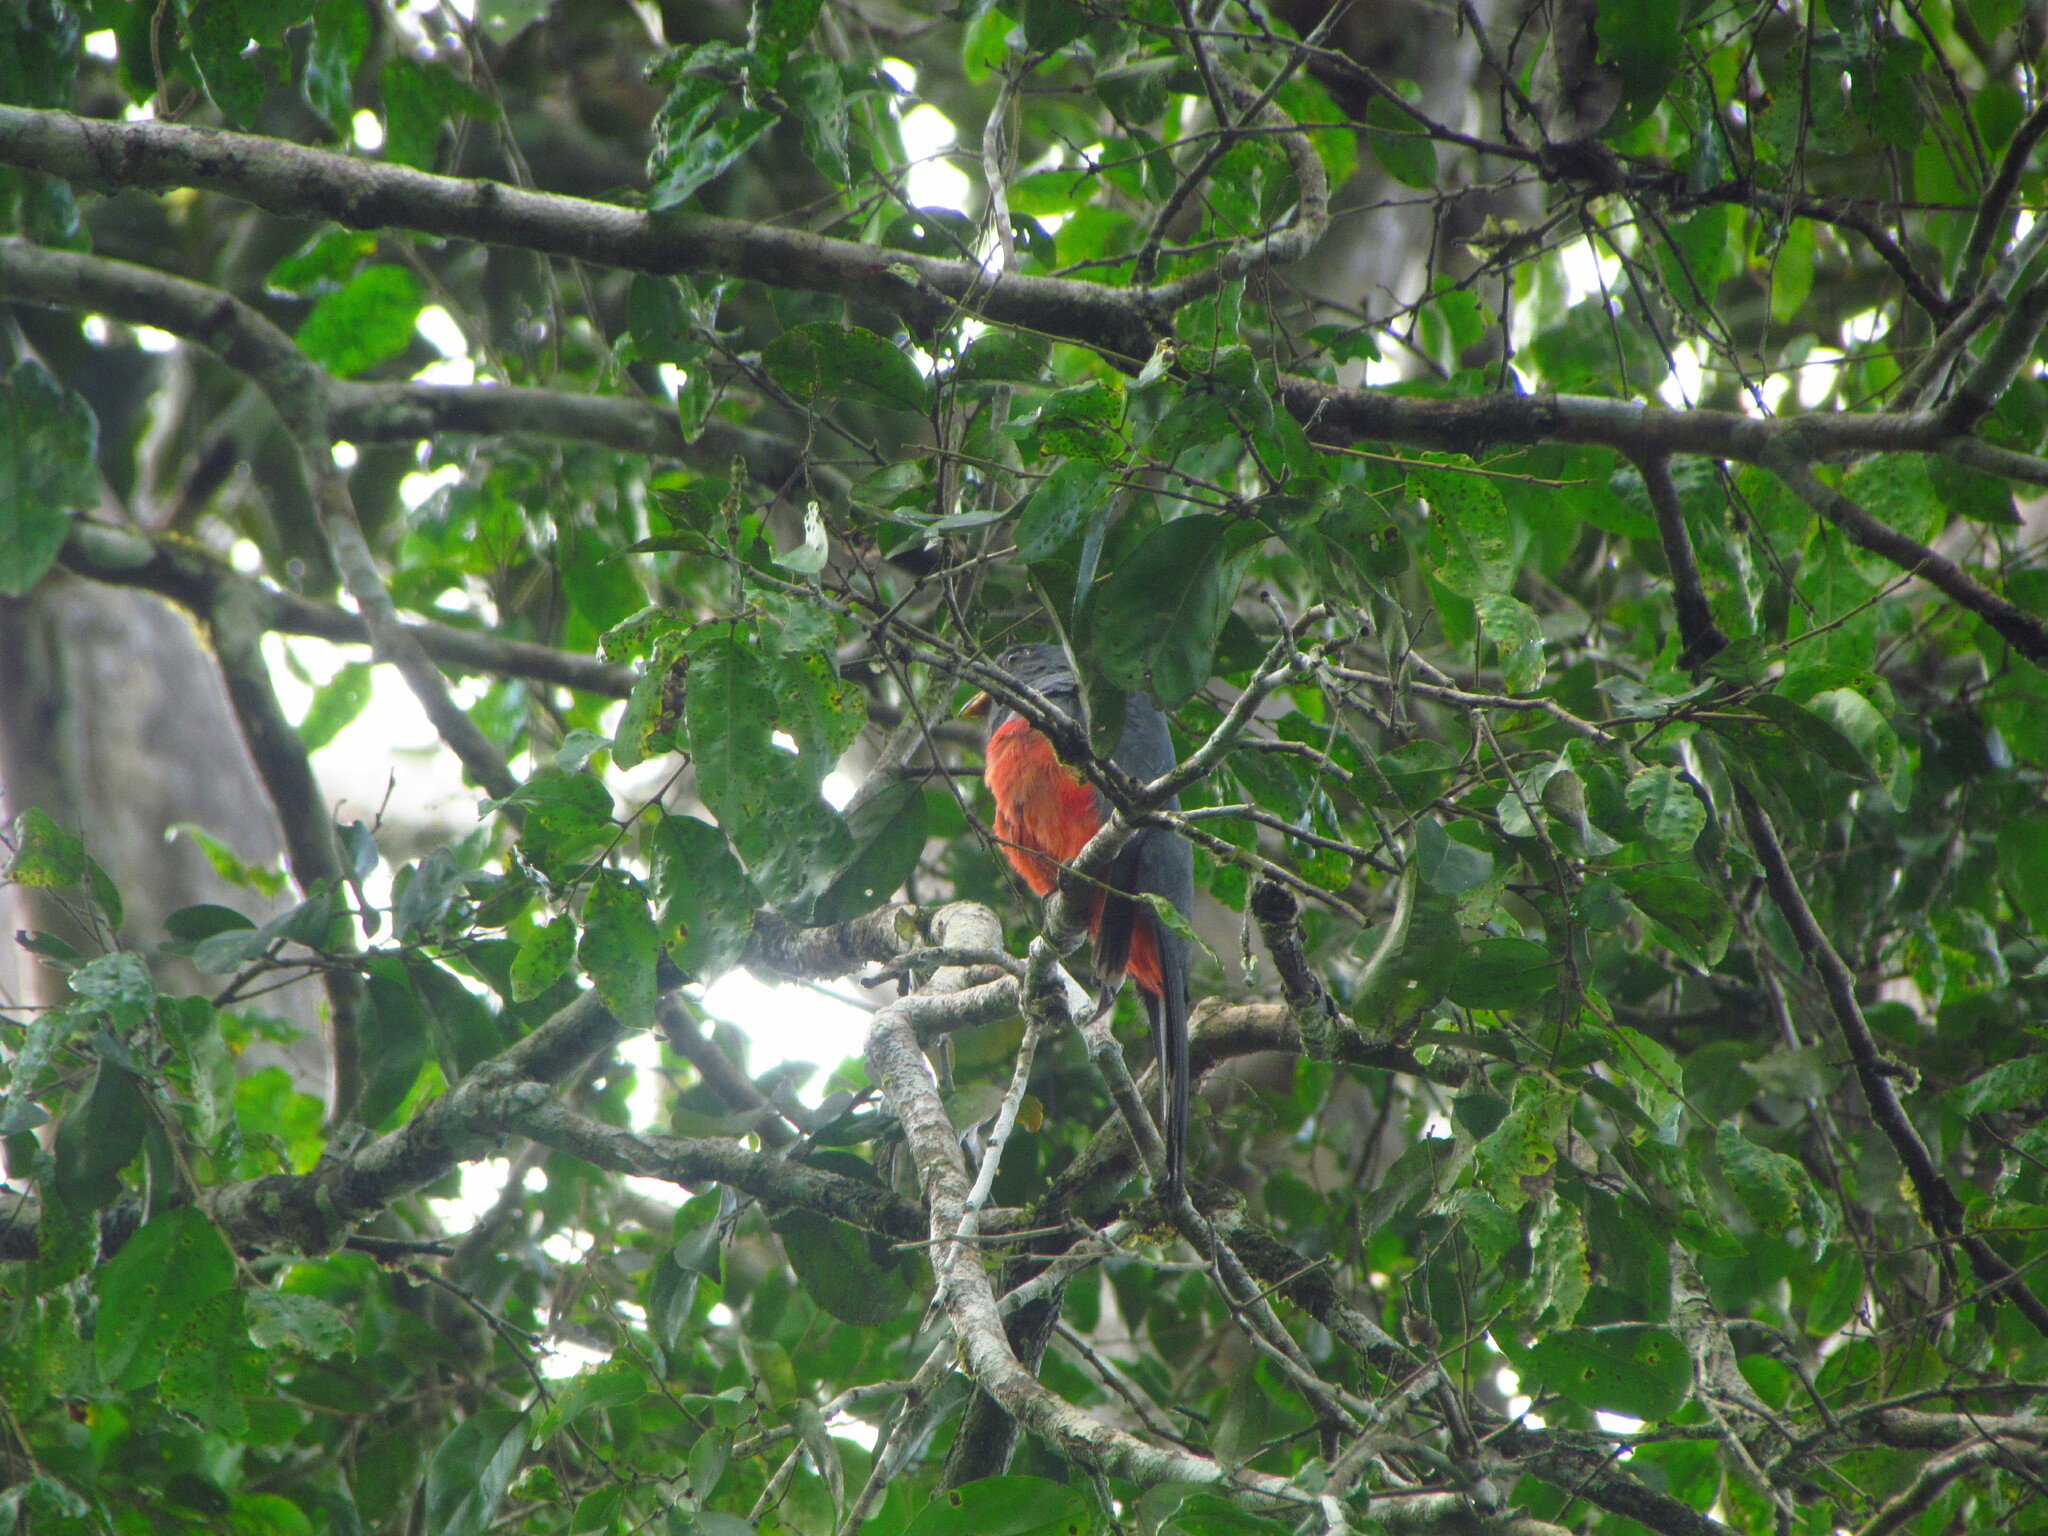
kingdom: Animalia
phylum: Chordata
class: Aves
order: Trogoniformes
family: Trogonidae
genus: Trogon
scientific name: Trogon melanurus
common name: Black-tailed trogon
